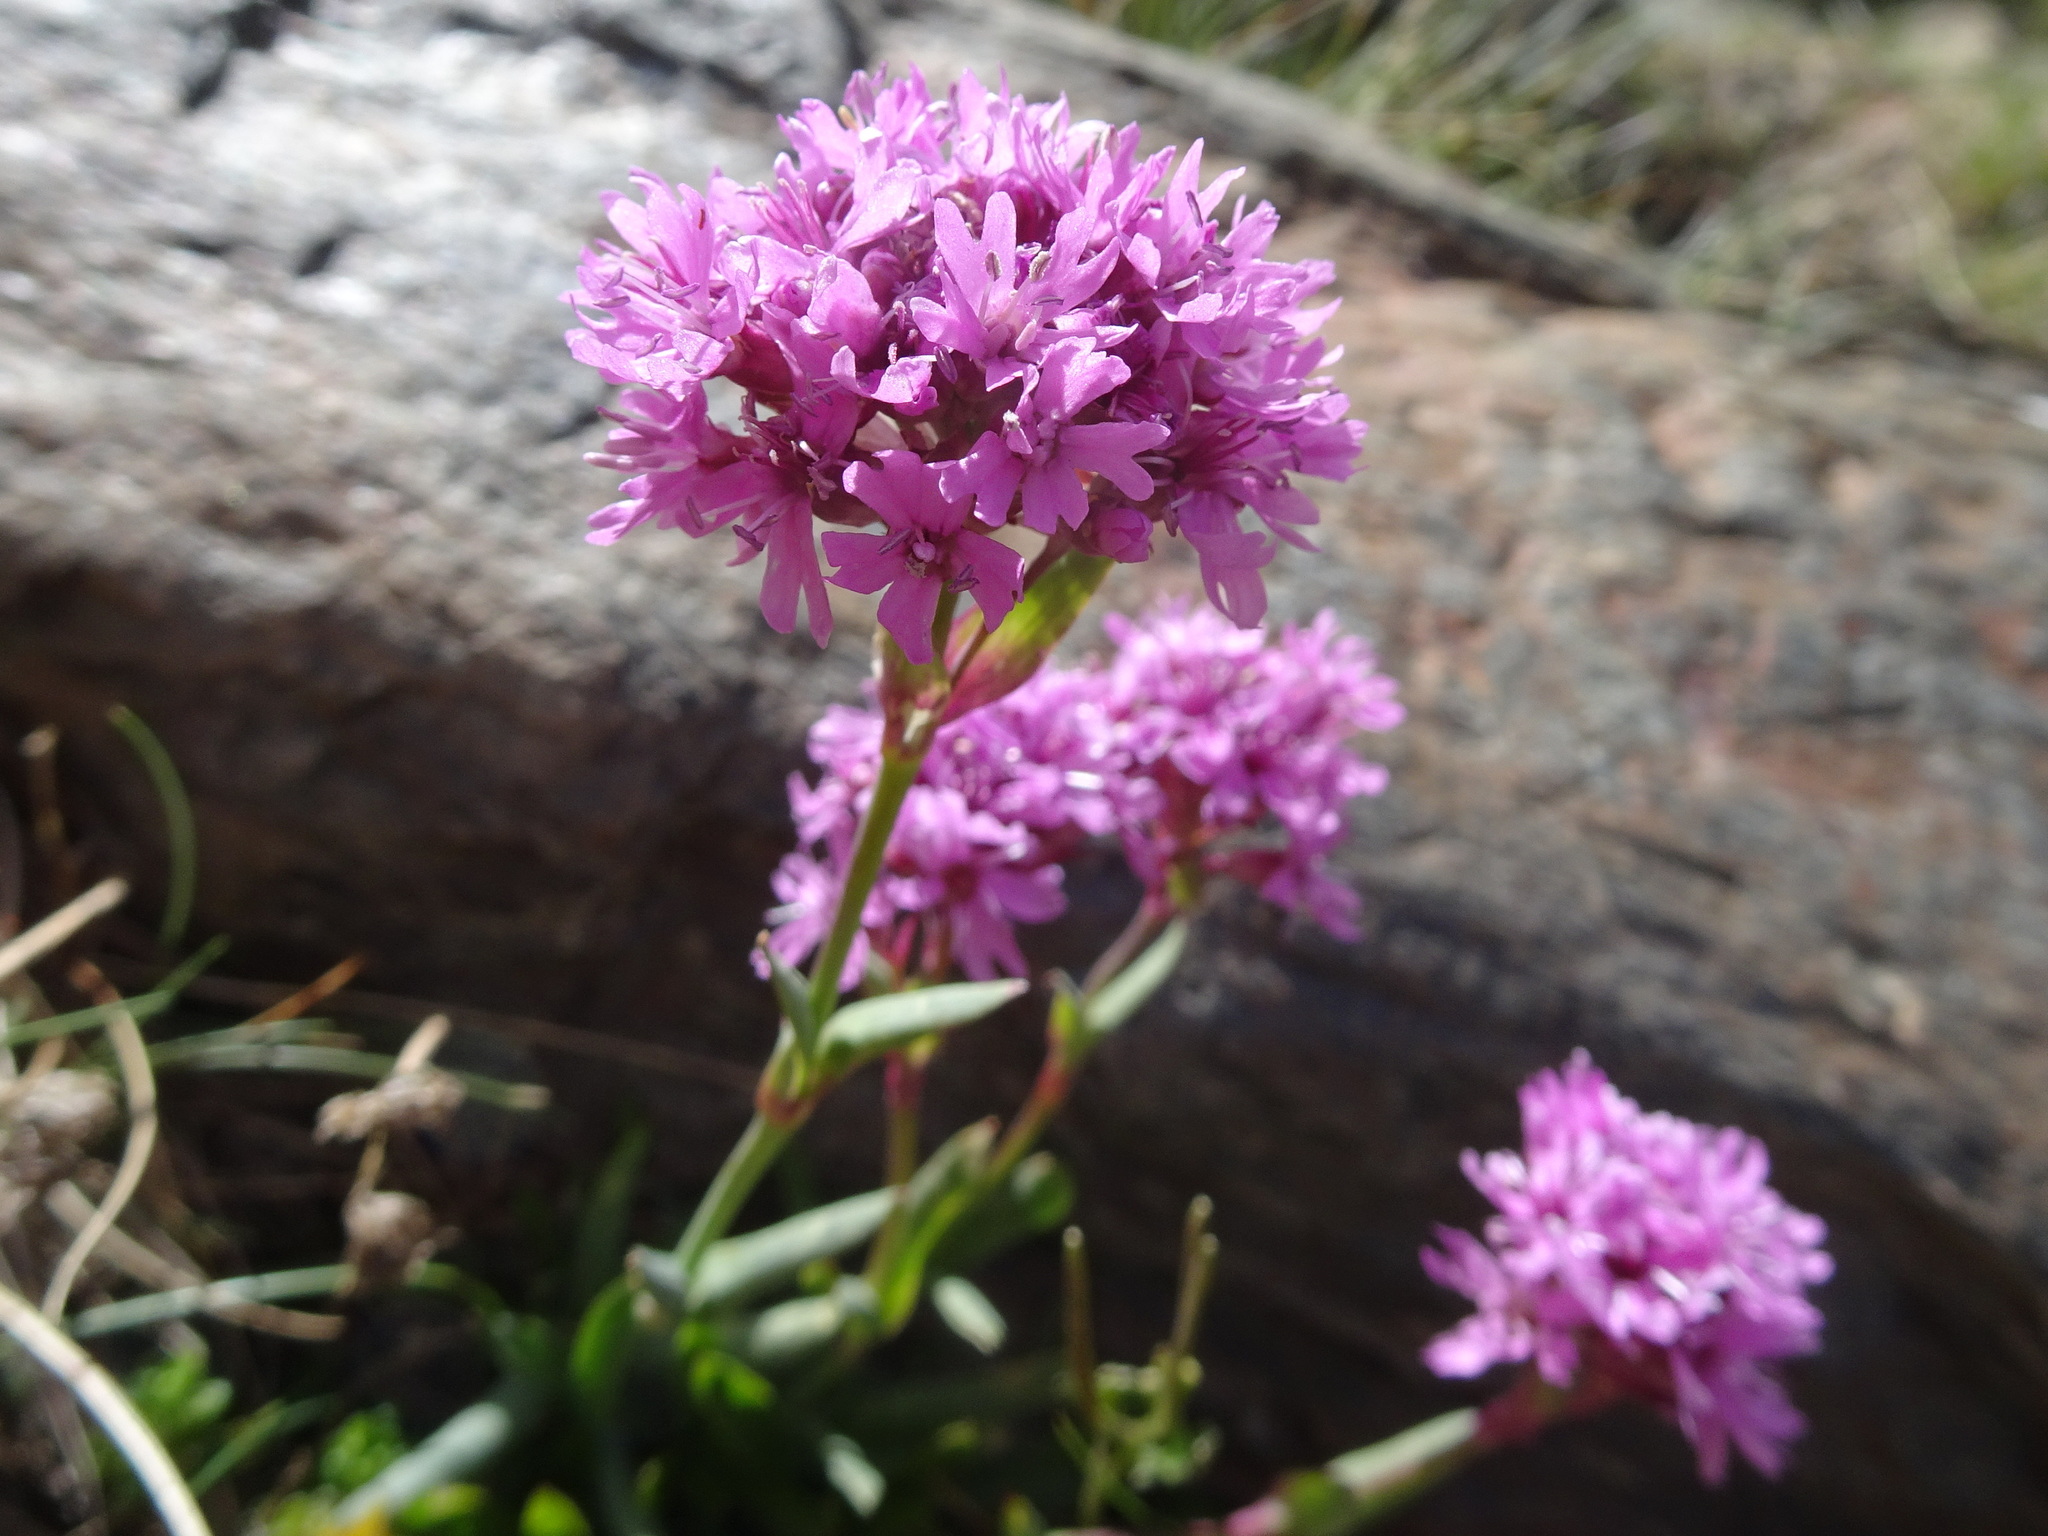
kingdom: Plantae
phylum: Tracheophyta
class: Magnoliopsida
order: Caryophyllales
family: Caryophyllaceae
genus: Viscaria
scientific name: Viscaria alpina
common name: Alpine campion
